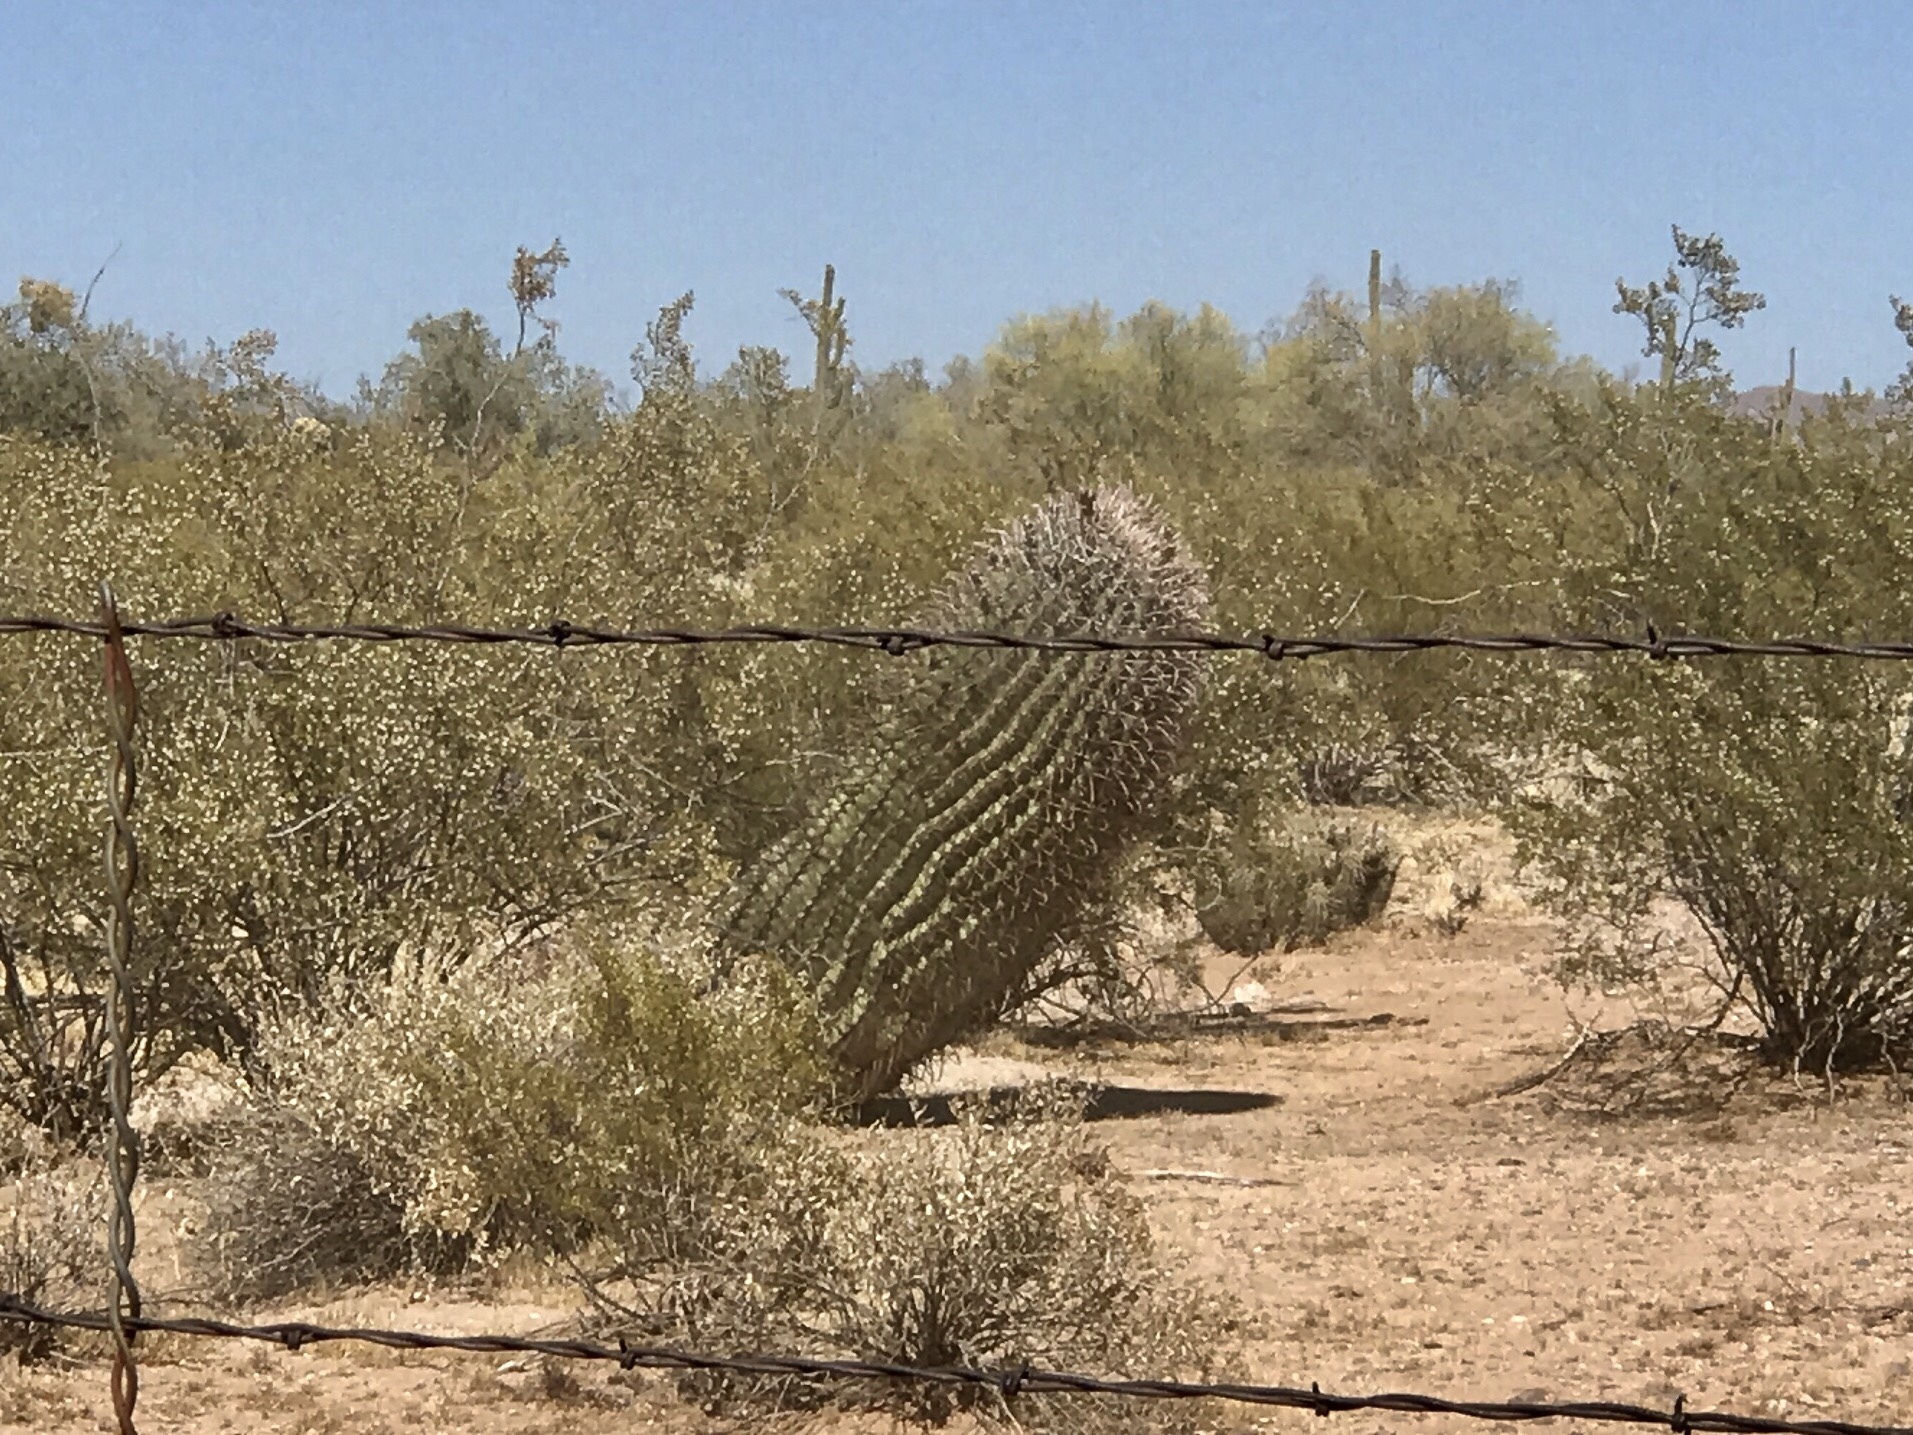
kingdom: Plantae
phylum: Tracheophyta
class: Magnoliopsida
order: Caryophyllales
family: Cactaceae
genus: Ferocactus
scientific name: Ferocactus wislizeni
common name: Candy barrel cactus
